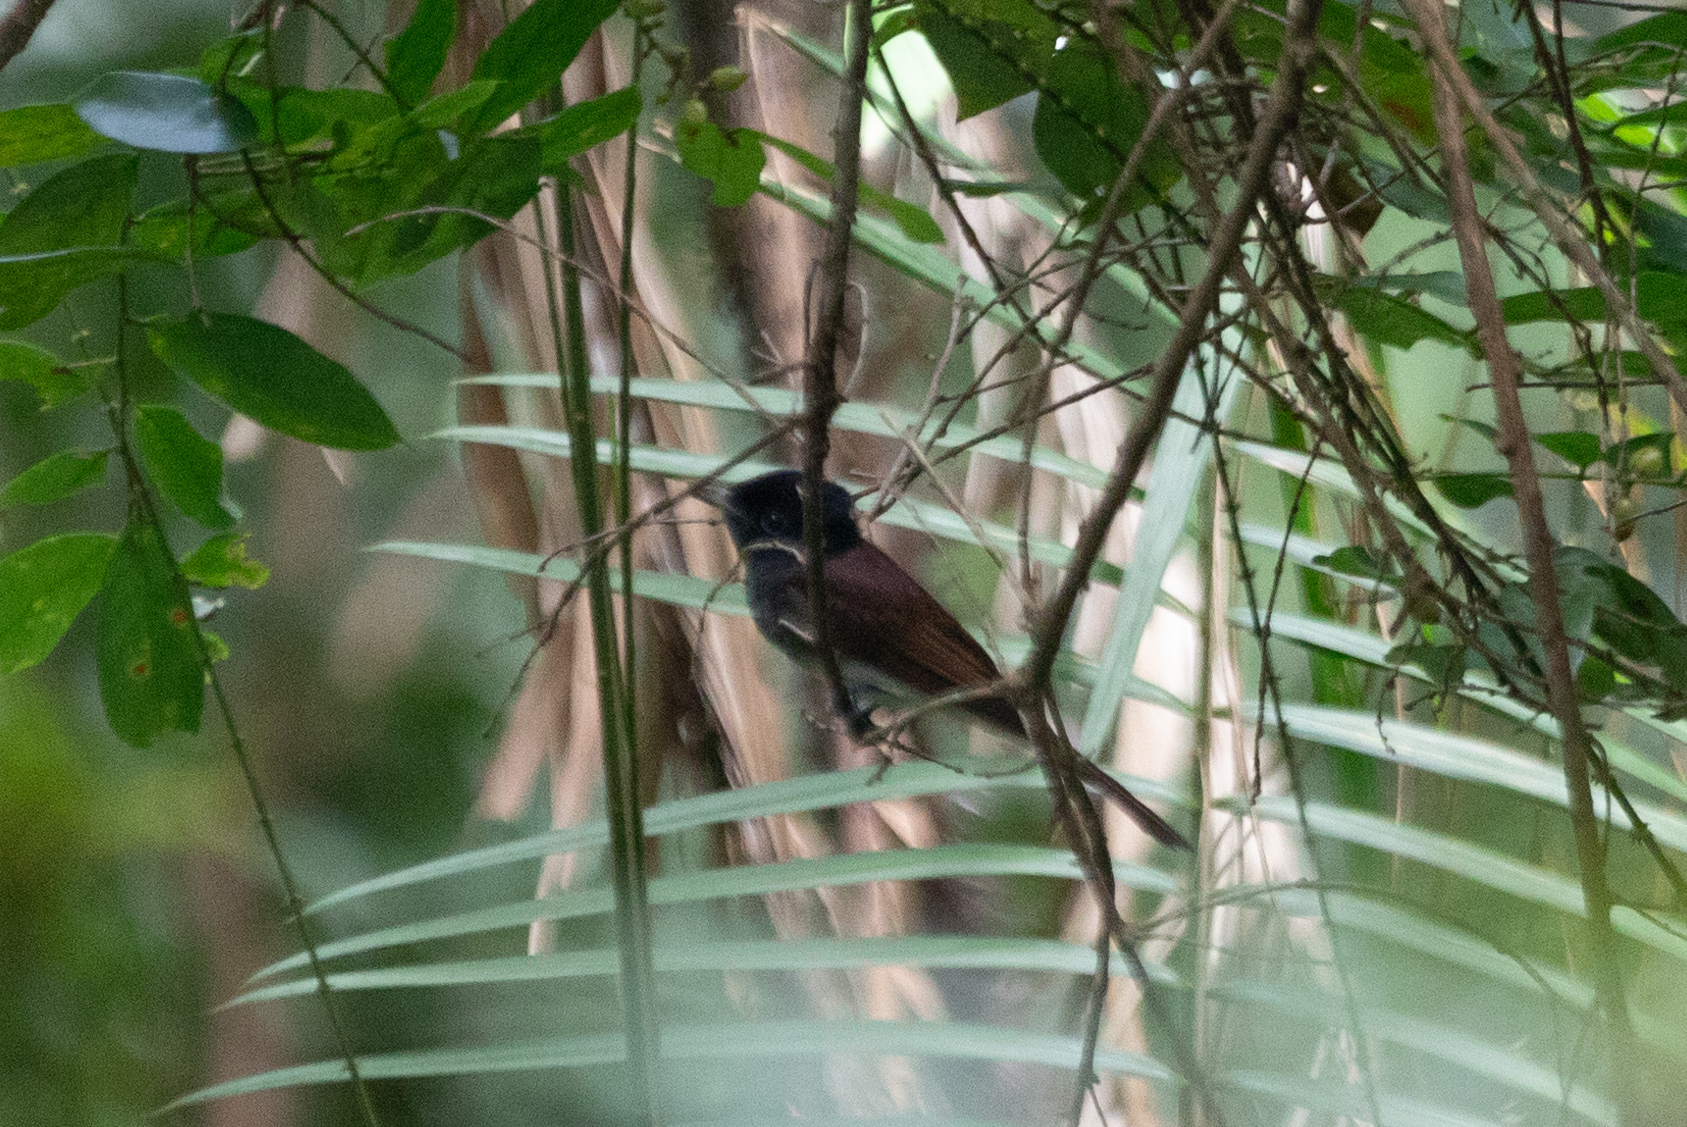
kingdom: Animalia
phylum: Chordata
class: Aves
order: Passeriformes
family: Monarchidae
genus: Terpsiphone
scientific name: Terpsiphone atrocaudata
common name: Japanese paradise flycatcher
